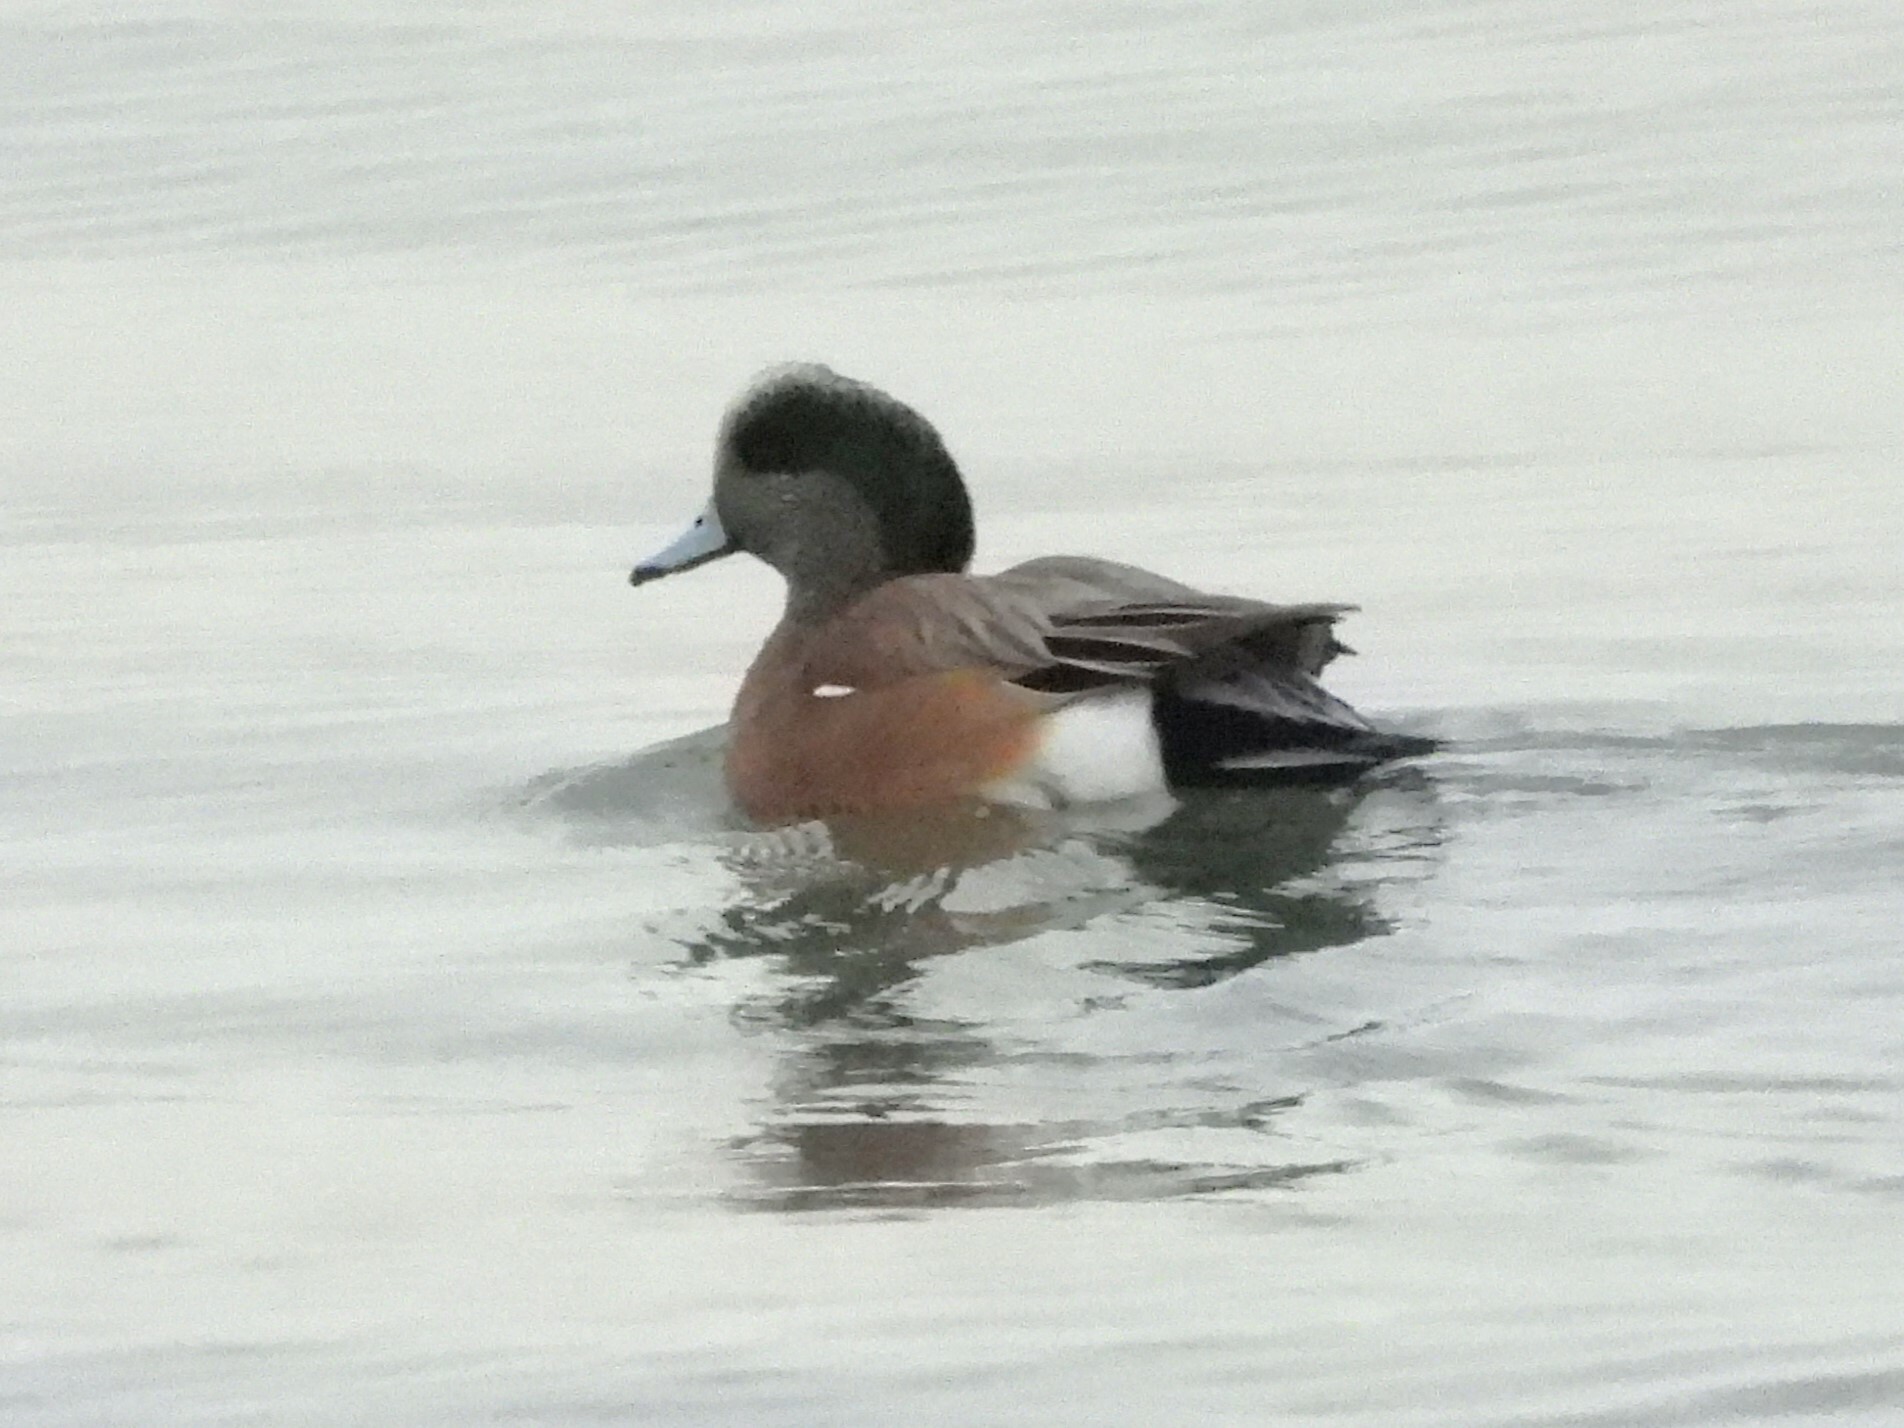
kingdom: Animalia
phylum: Chordata
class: Aves
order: Anseriformes
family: Anatidae
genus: Mareca
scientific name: Mareca americana
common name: American wigeon
